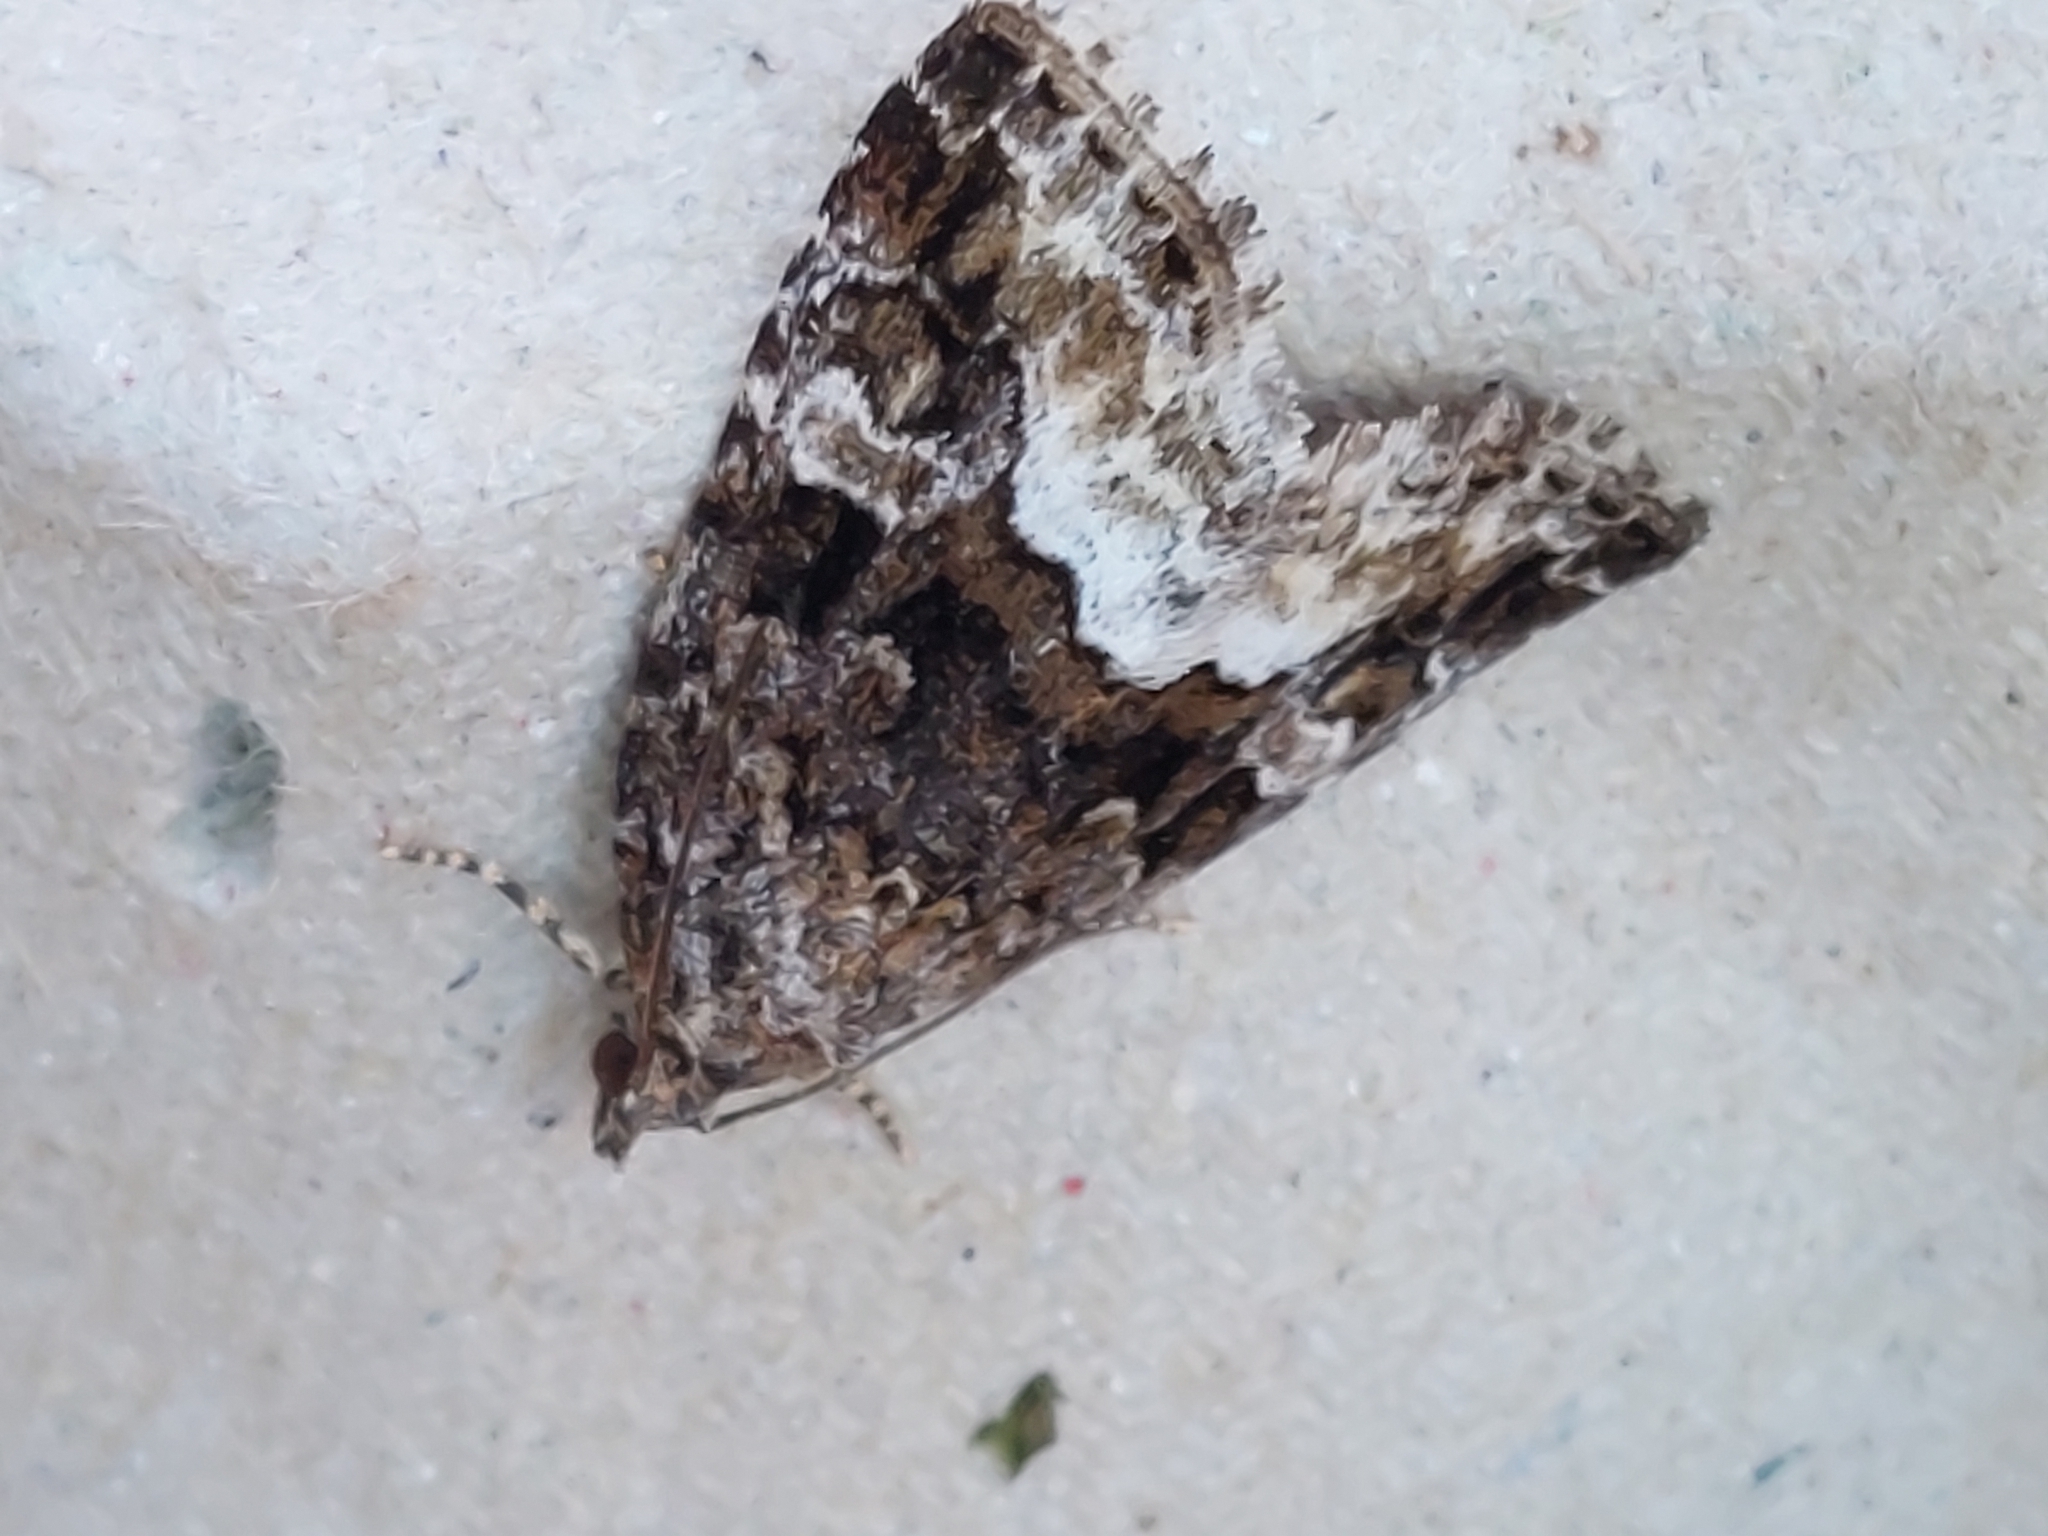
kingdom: Animalia
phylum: Arthropoda
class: Insecta
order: Lepidoptera
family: Noctuidae
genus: Deltote
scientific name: Deltote pygarga
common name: Marbled white spot
